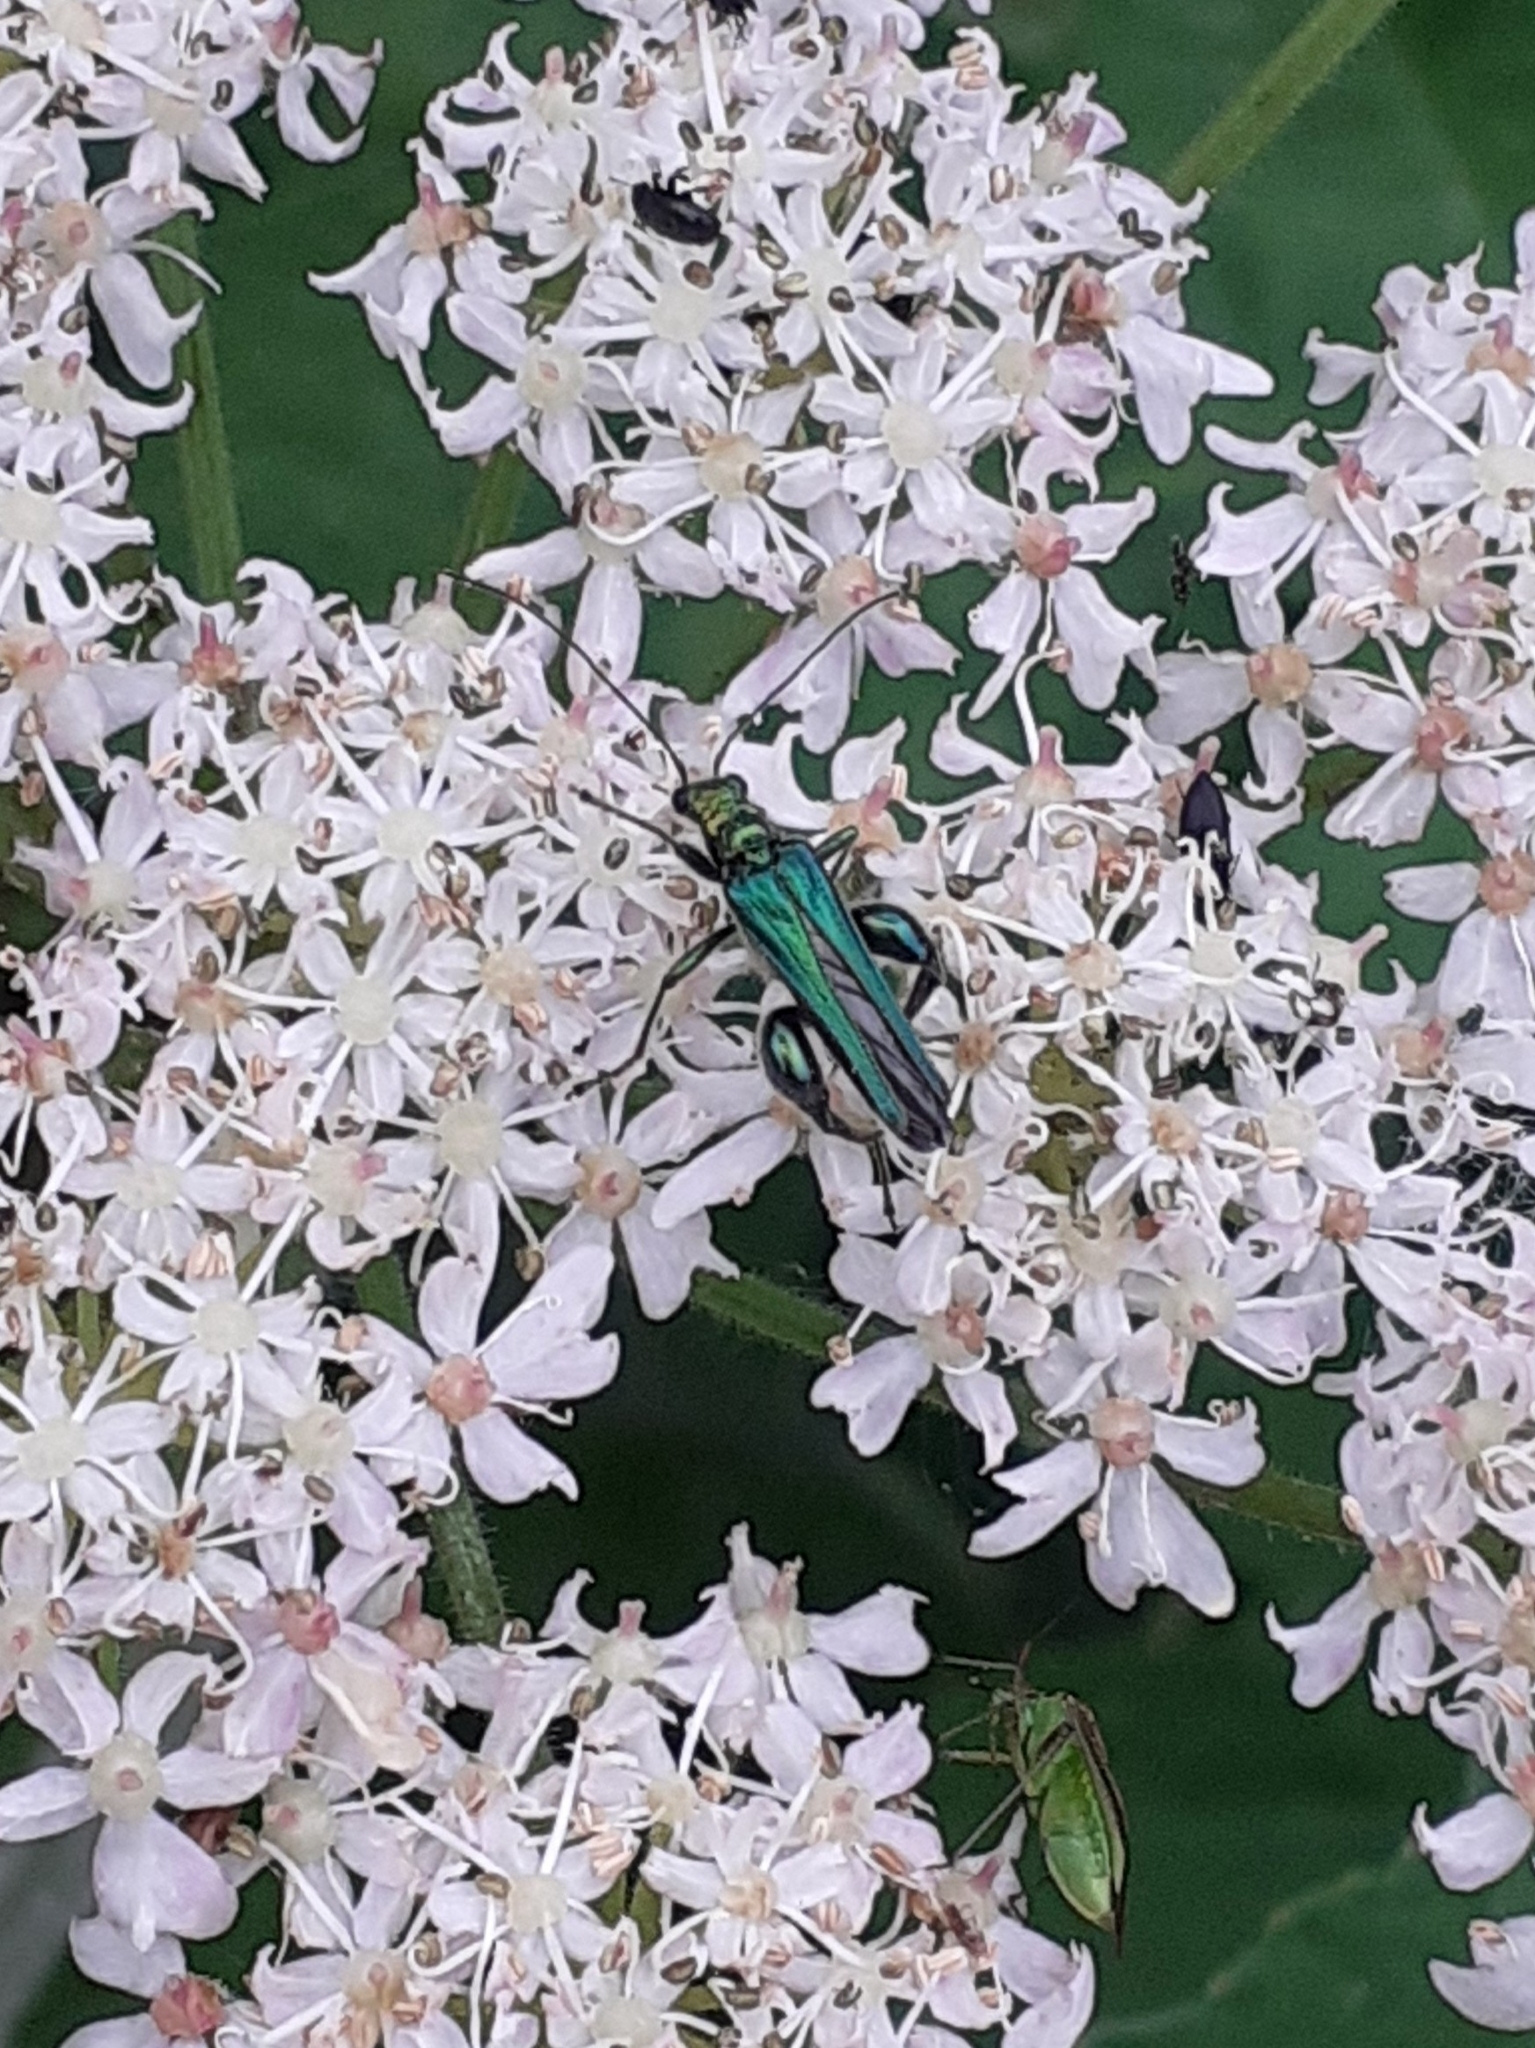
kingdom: Animalia
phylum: Arthropoda
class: Insecta
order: Coleoptera
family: Oedemeridae
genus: Oedemera
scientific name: Oedemera nobilis
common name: Swollen-thighed beetle
